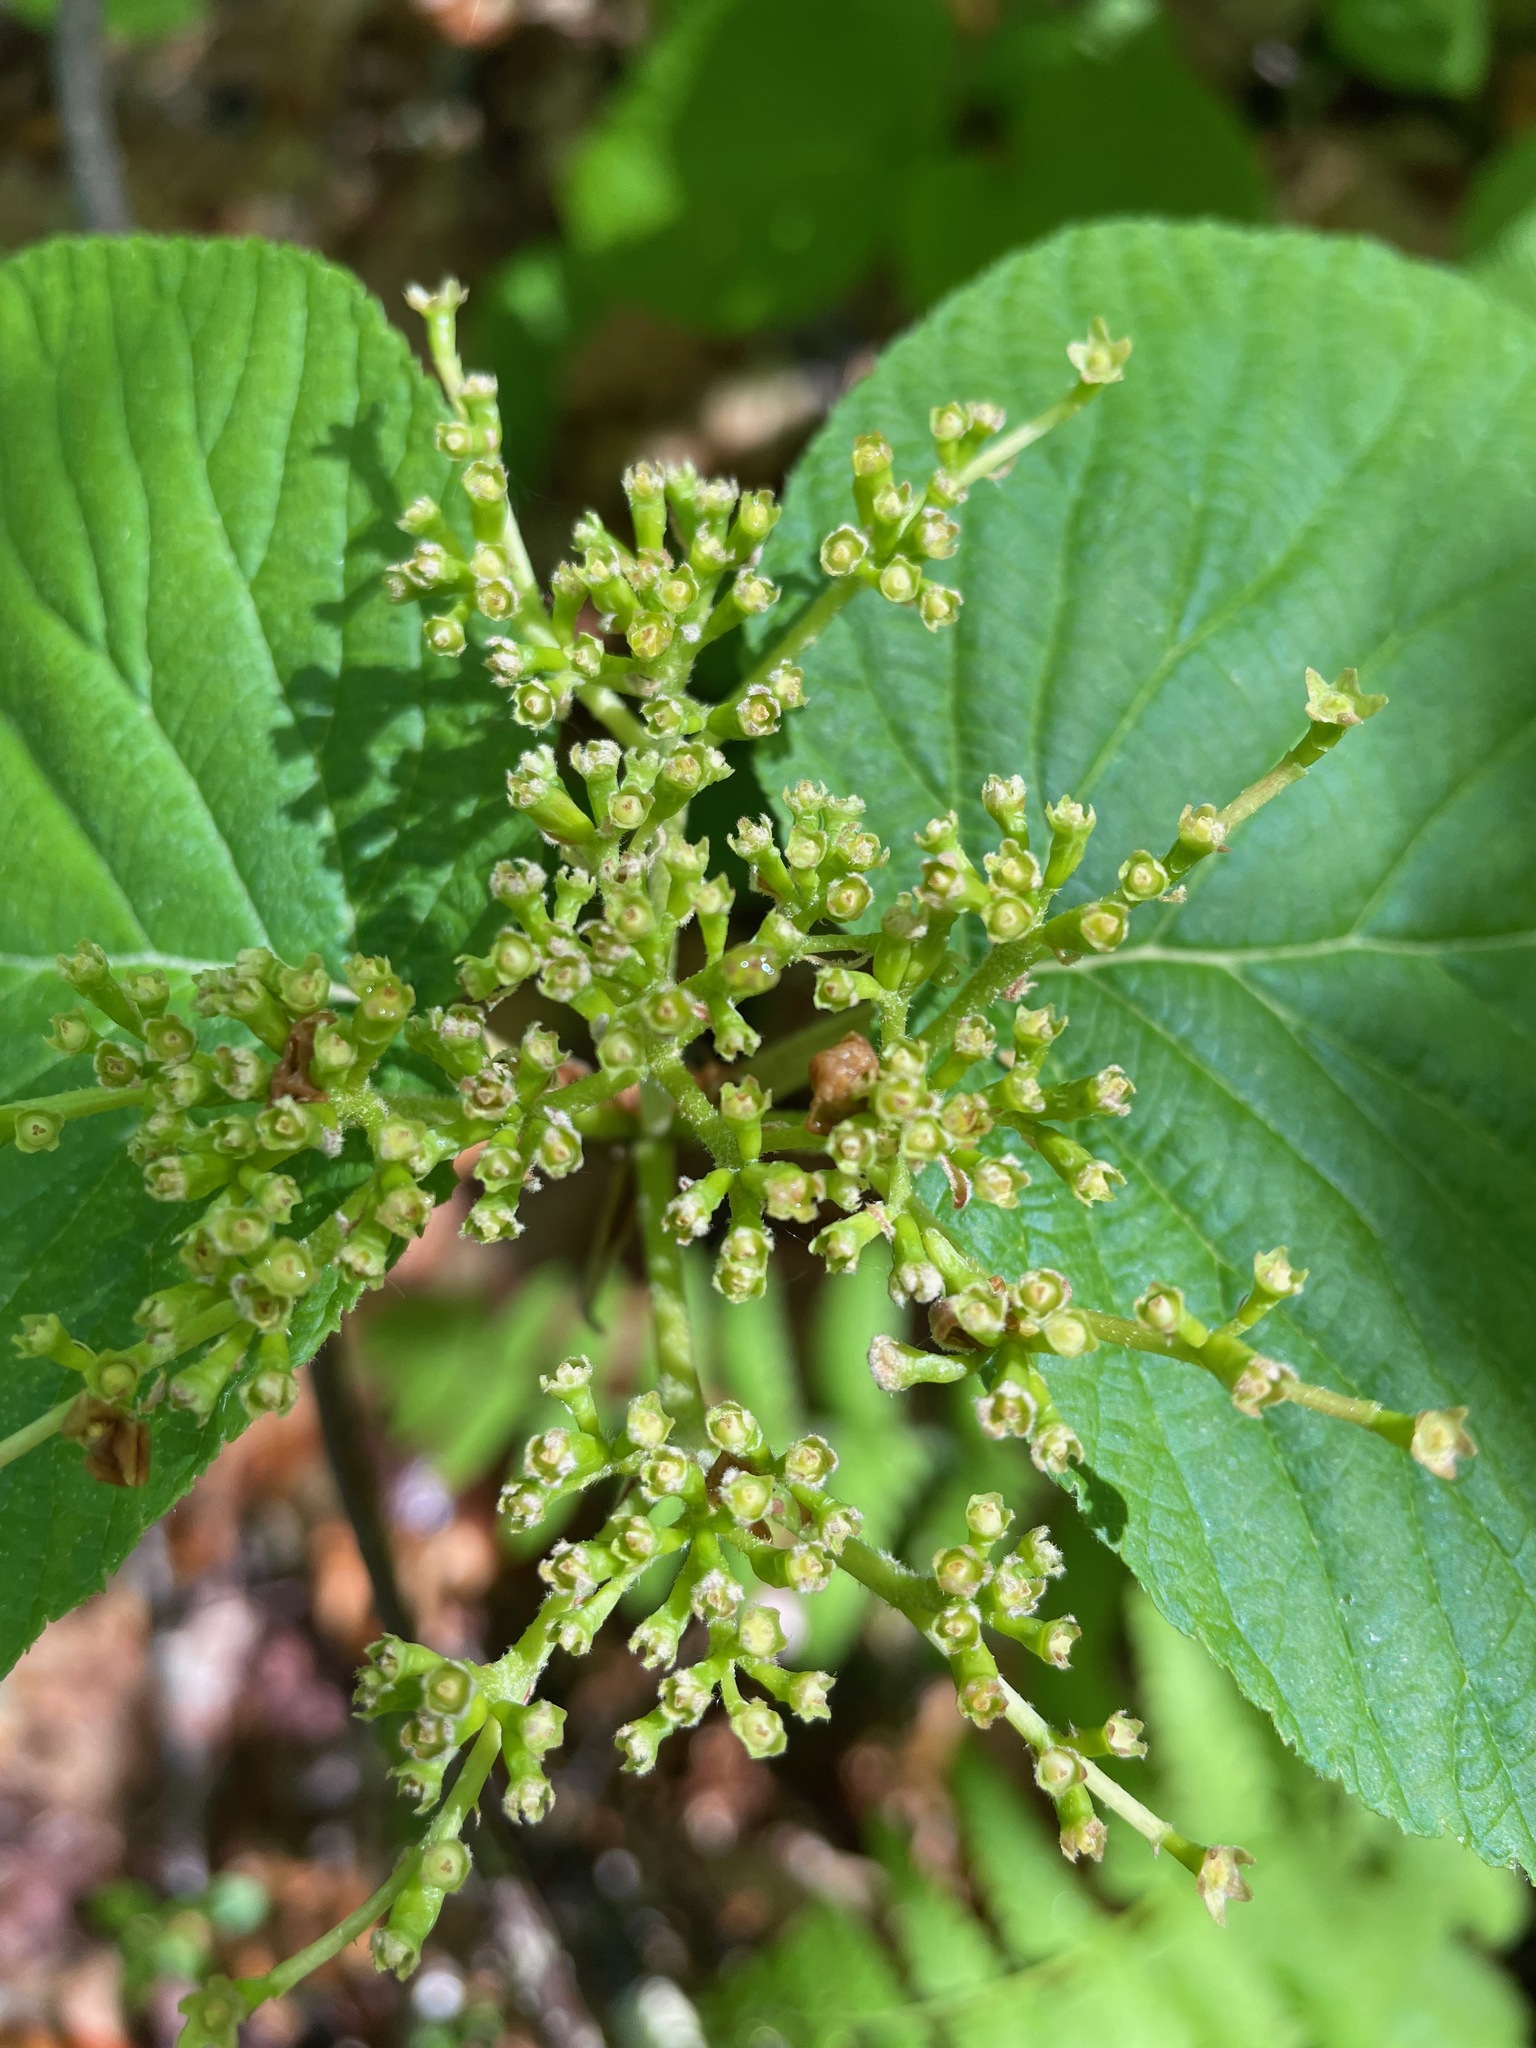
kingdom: Plantae
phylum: Tracheophyta
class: Magnoliopsida
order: Dipsacales
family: Viburnaceae
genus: Viburnum
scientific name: Viburnum lantanoides
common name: Hobblebush
